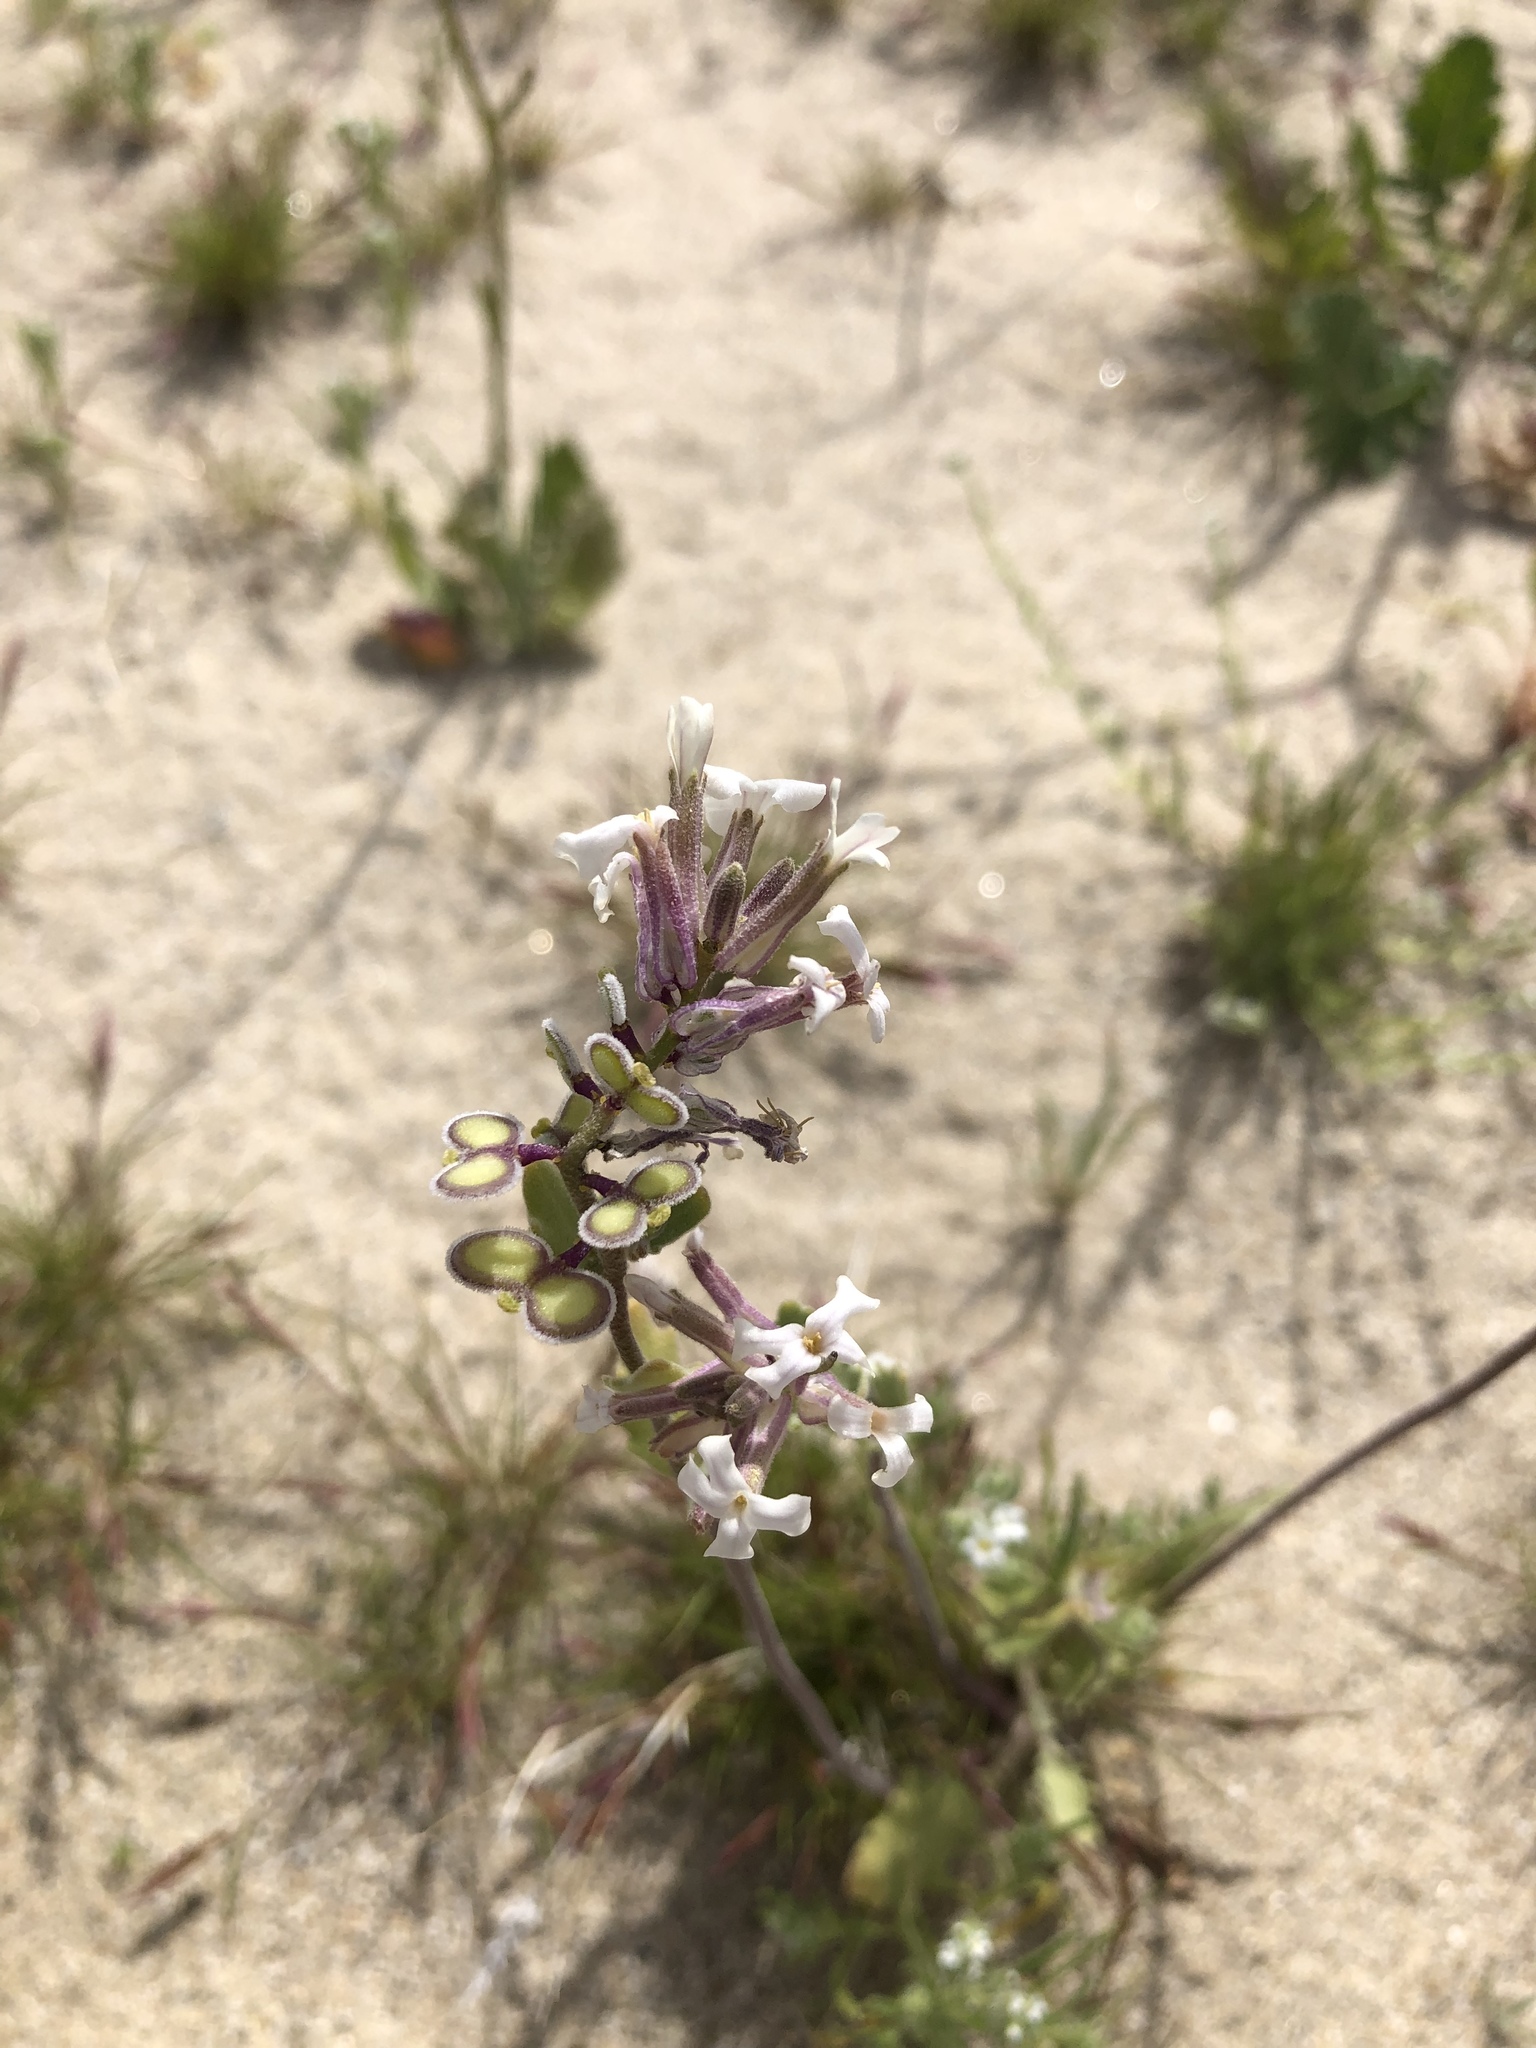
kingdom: Plantae
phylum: Tracheophyta
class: Magnoliopsida
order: Brassicales
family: Brassicaceae
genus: Dithyrea
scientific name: Dithyrea californica
